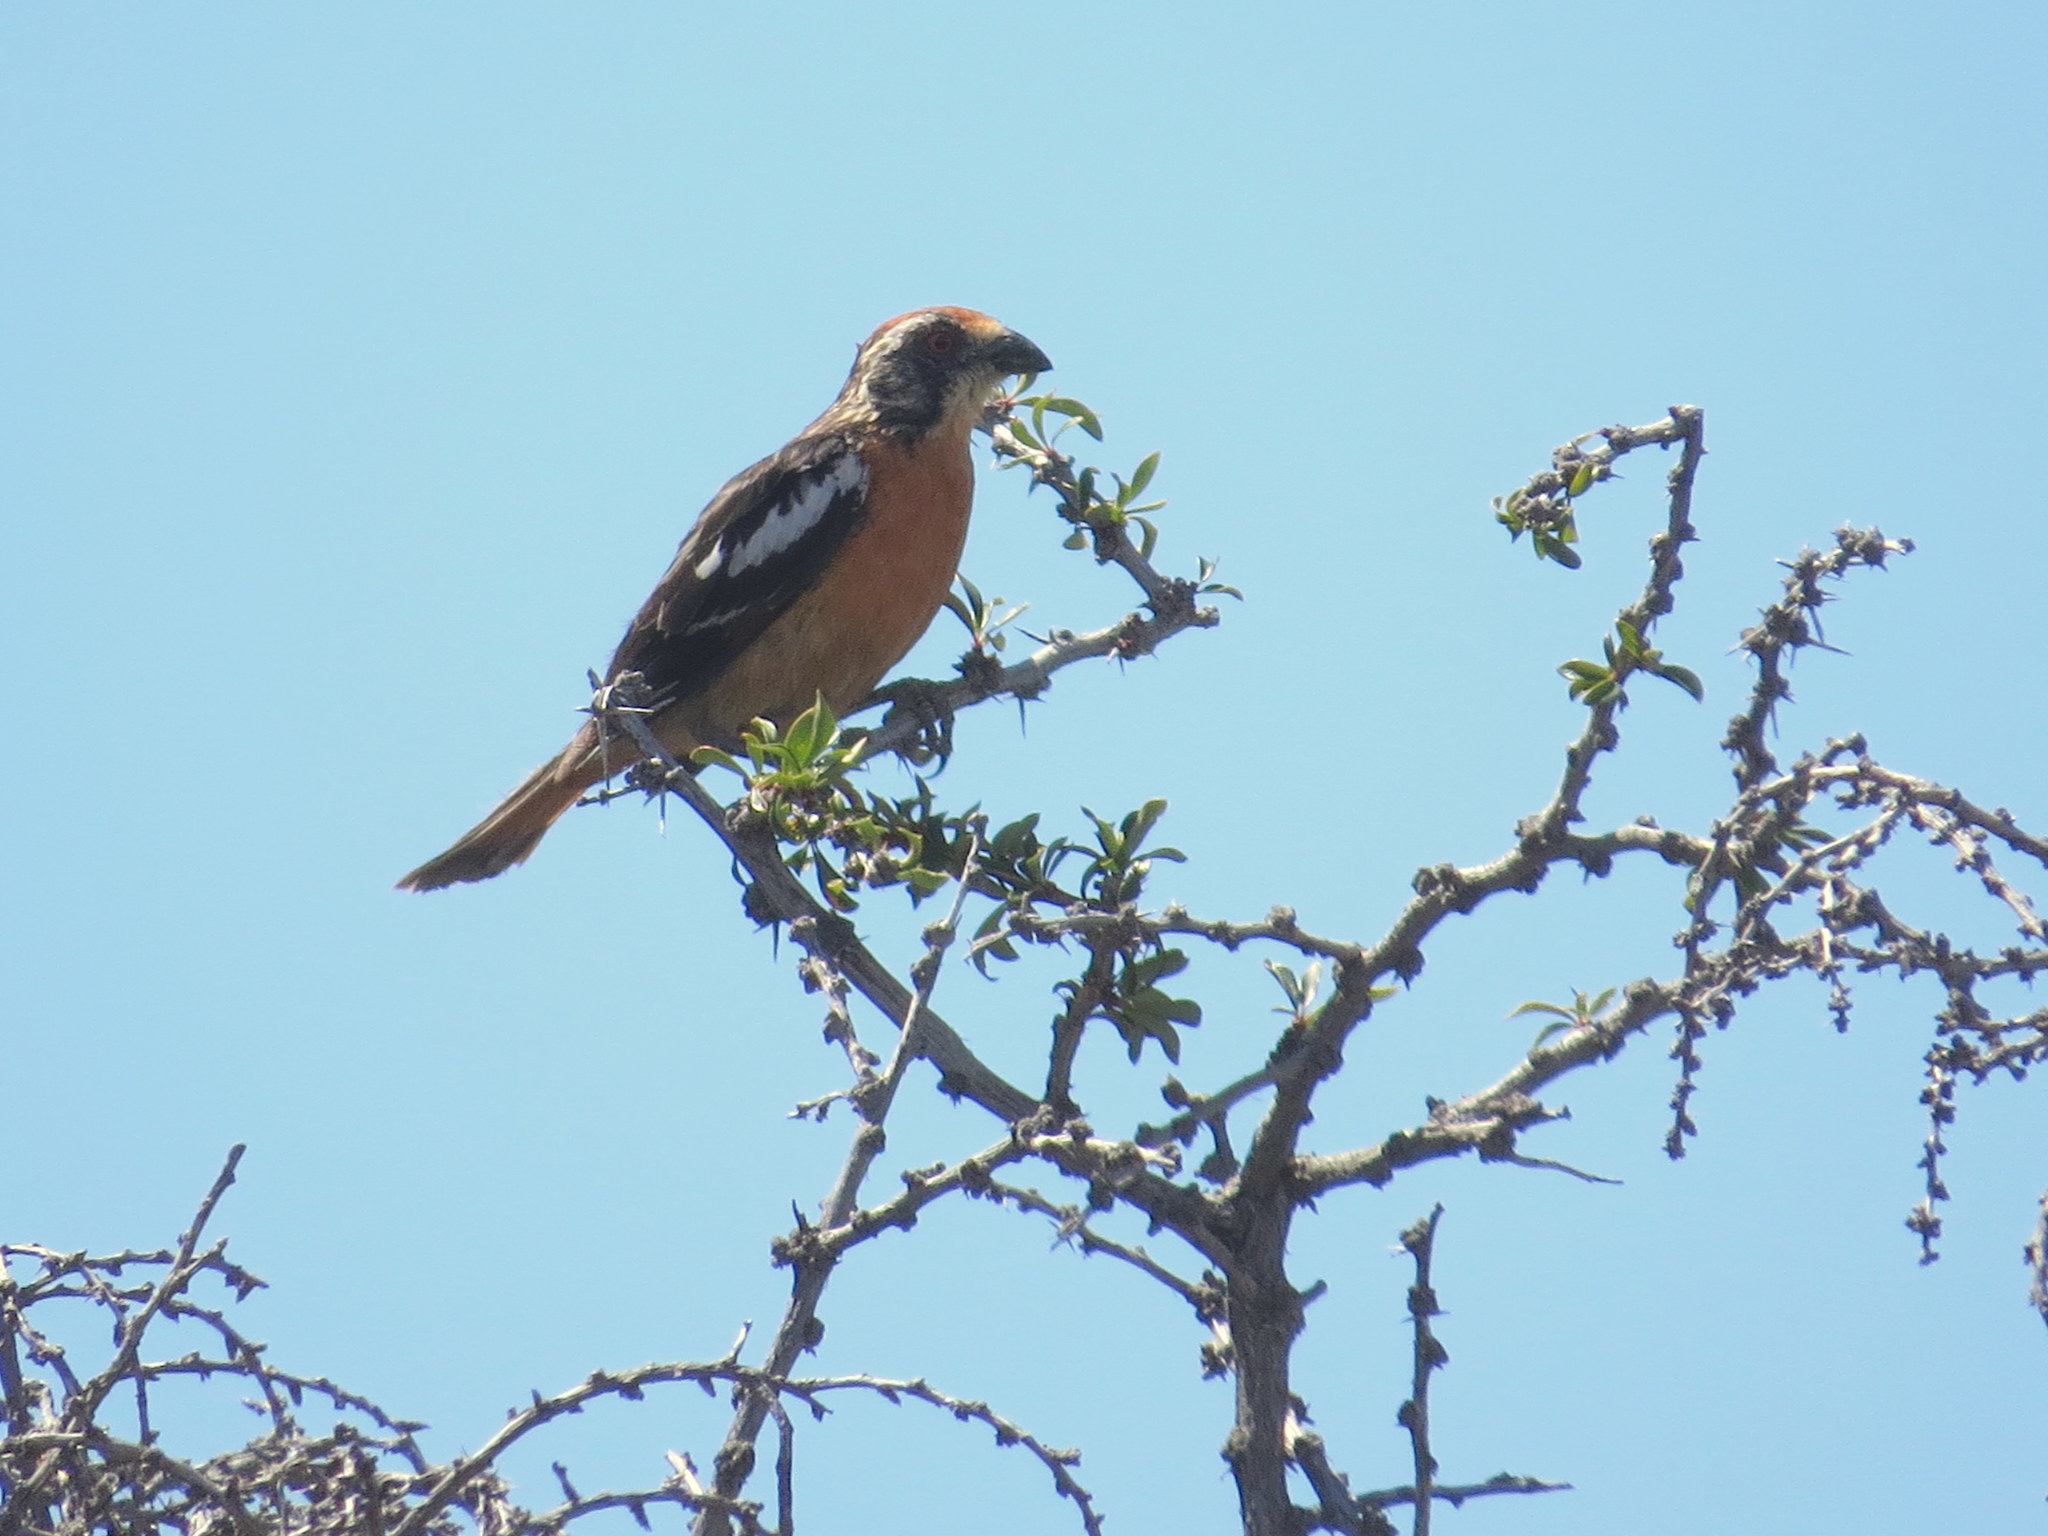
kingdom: Animalia
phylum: Chordata
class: Aves
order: Passeriformes
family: Cotingidae
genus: Phytotoma
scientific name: Phytotoma rara
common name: Rufous-tailed plantcutter
